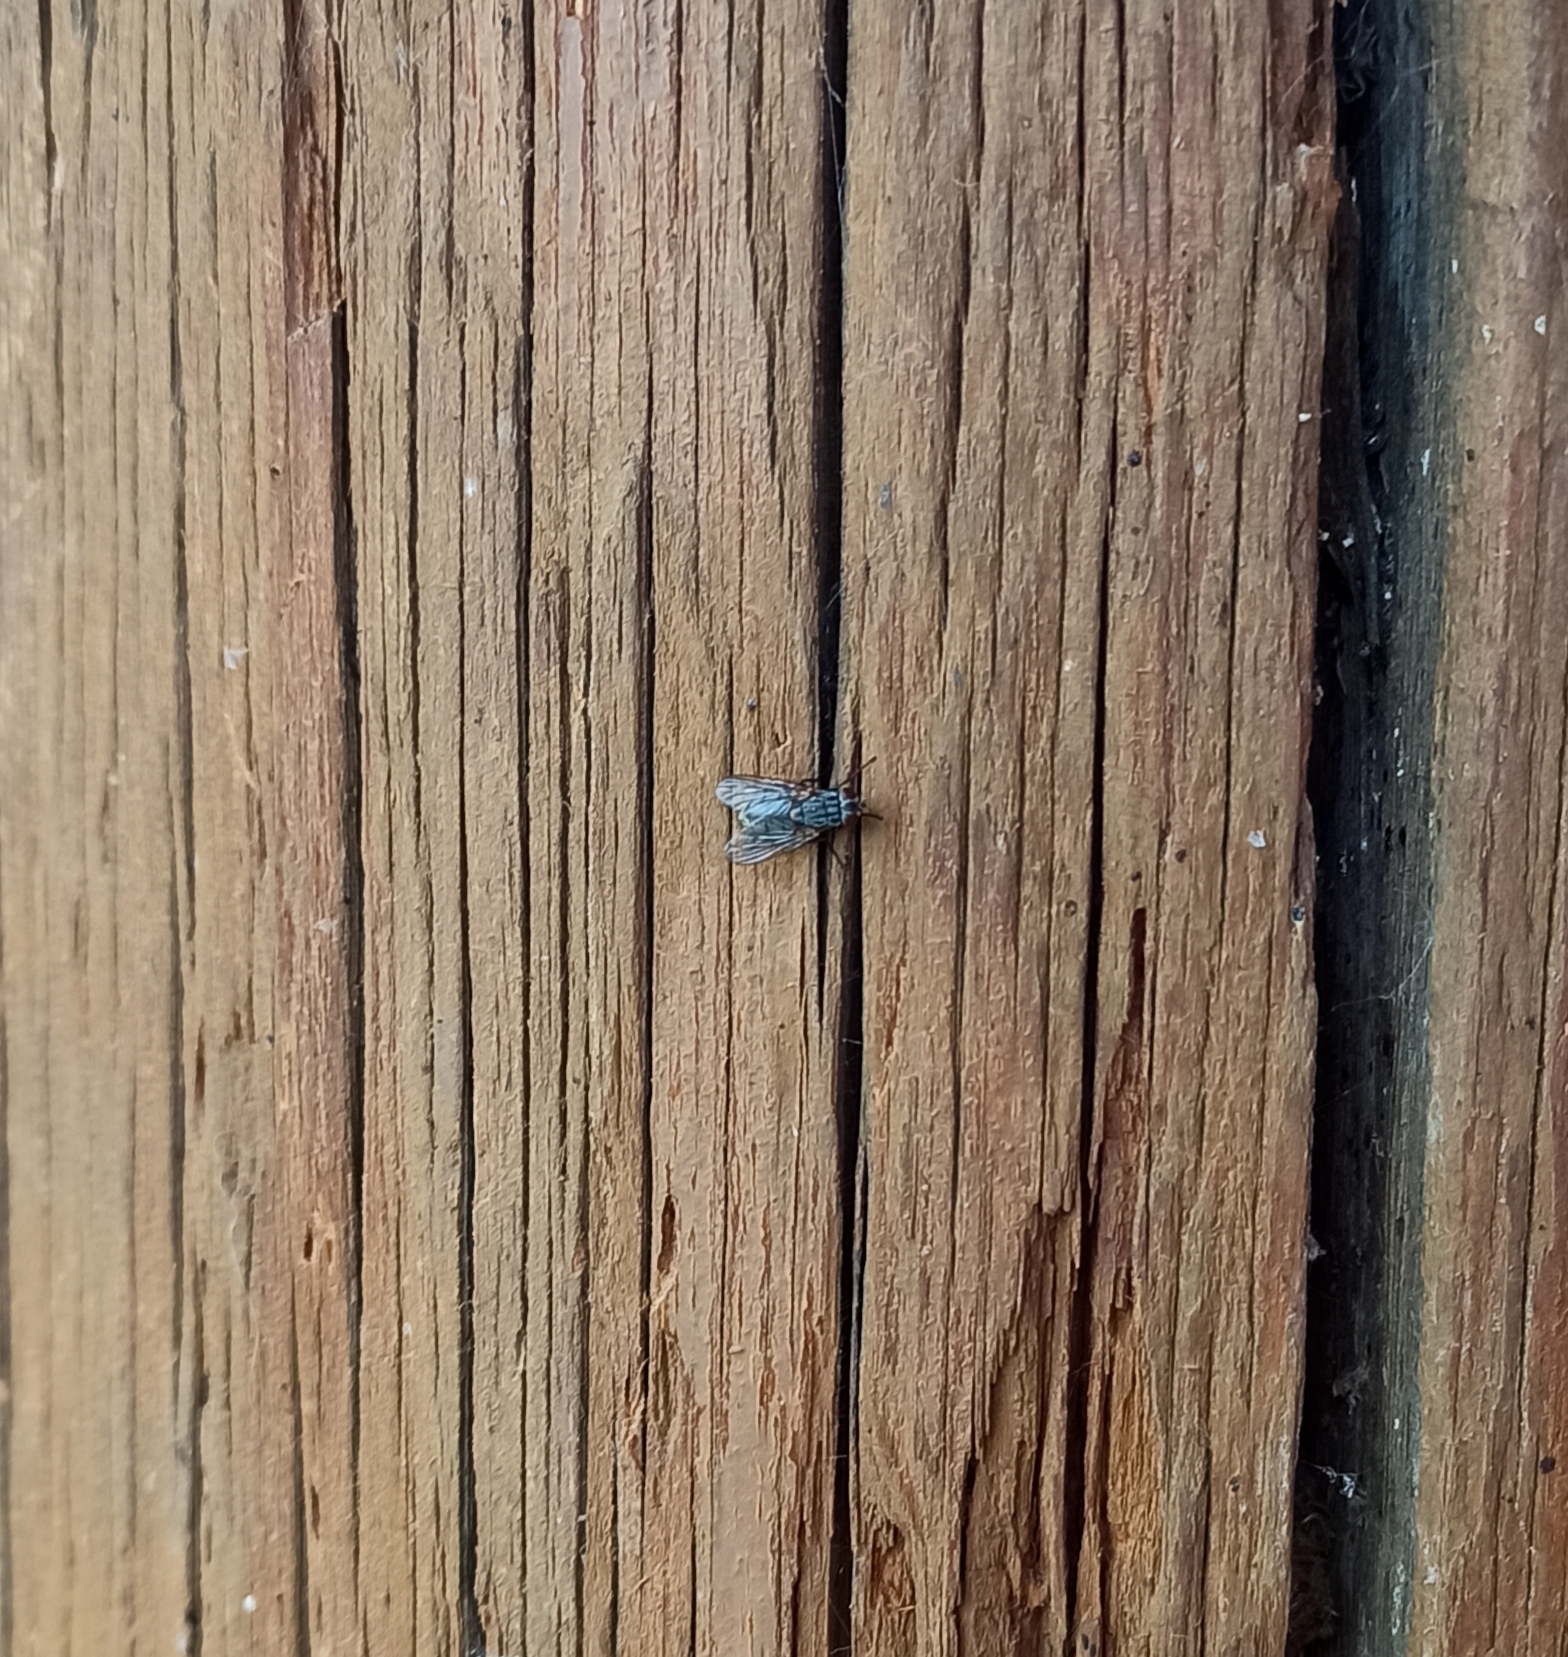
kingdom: Animalia
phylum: Arthropoda
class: Insecta
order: Diptera
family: Muscidae
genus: Muscina
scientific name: Muscina stabulans
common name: False stable fly
